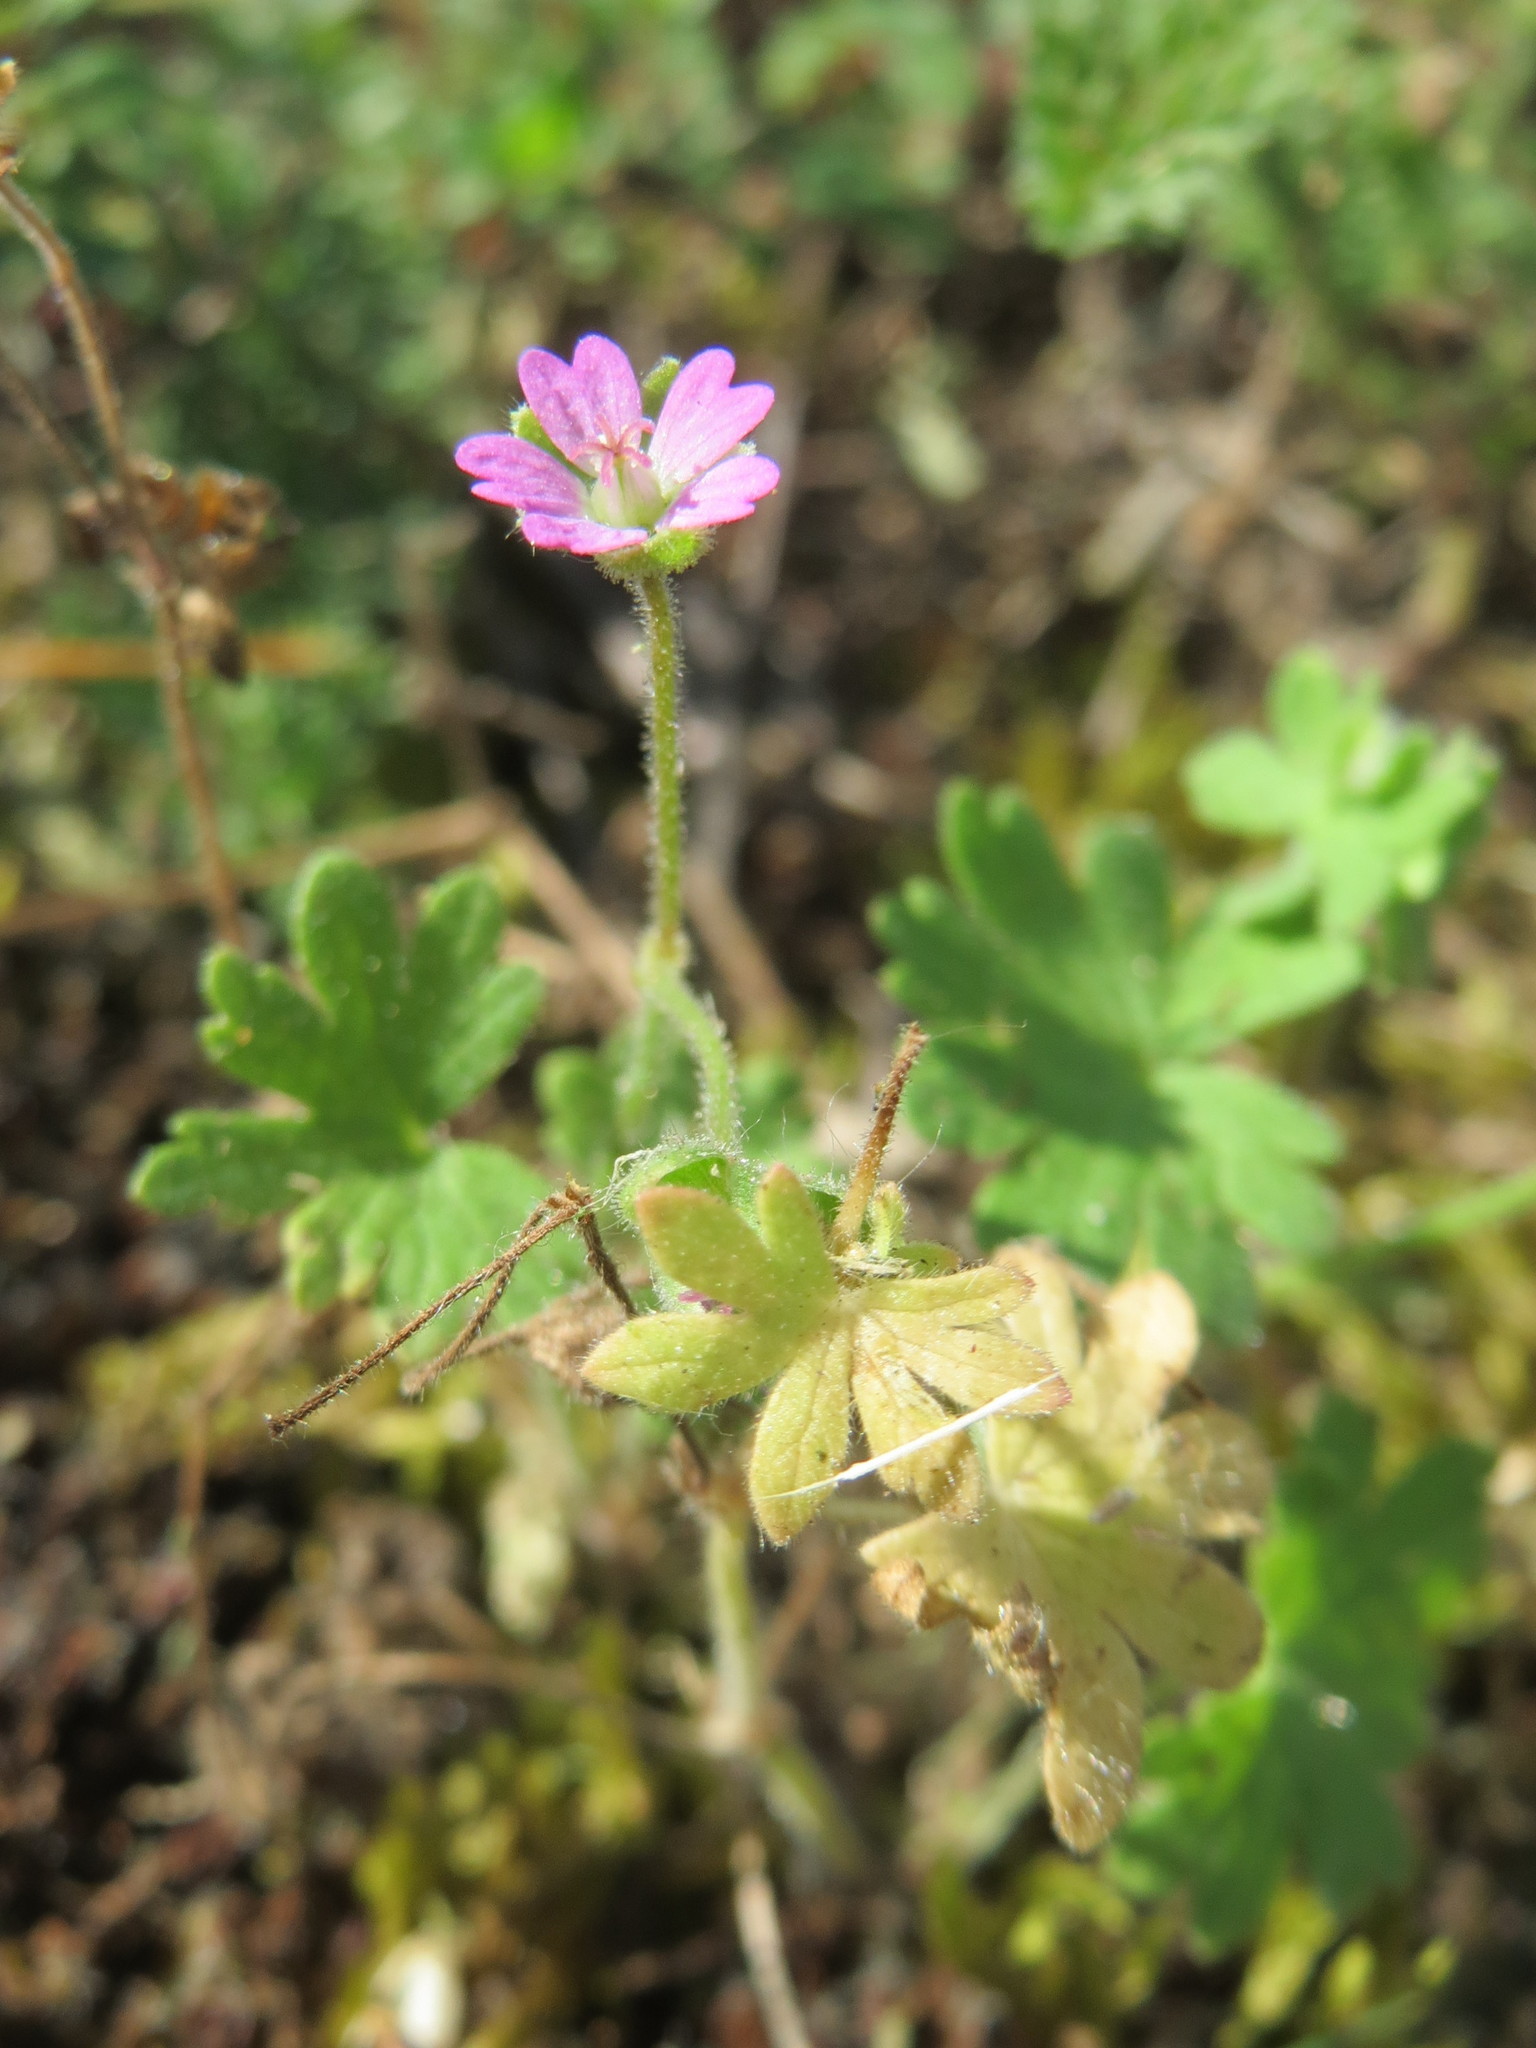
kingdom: Plantae
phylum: Tracheophyta
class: Magnoliopsida
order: Geraniales
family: Geraniaceae
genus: Geranium
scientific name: Geranium molle
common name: Dove's-foot crane's-bill
